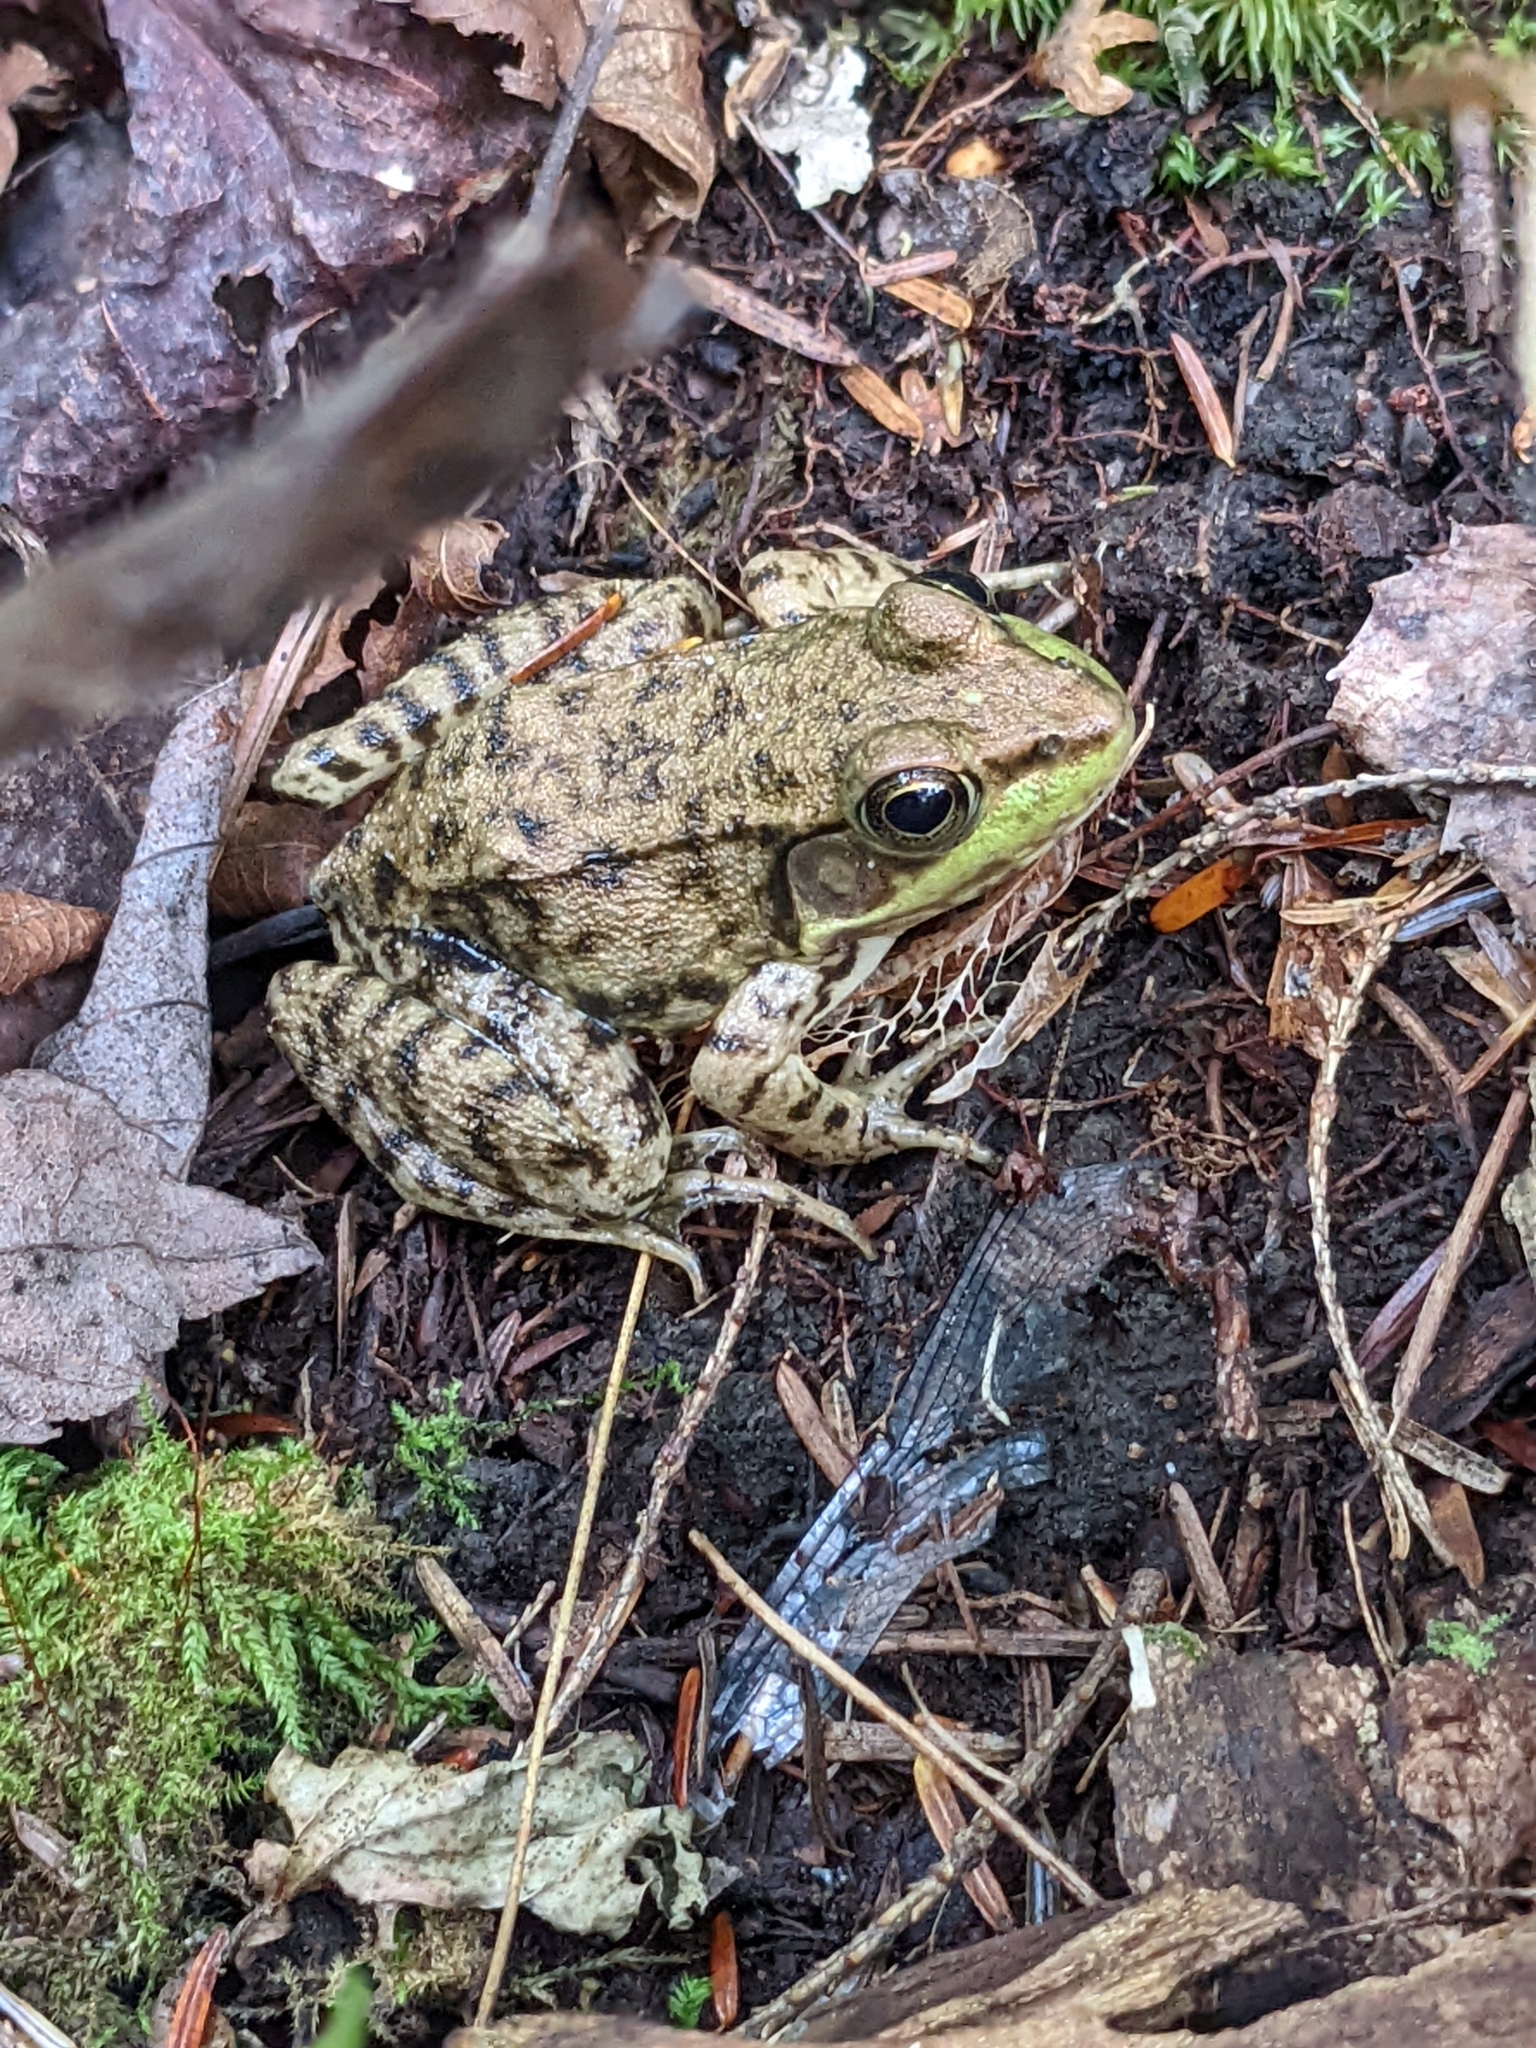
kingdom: Animalia
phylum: Chordata
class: Amphibia
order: Anura
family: Ranidae
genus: Lithobates
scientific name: Lithobates clamitans
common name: Green frog
